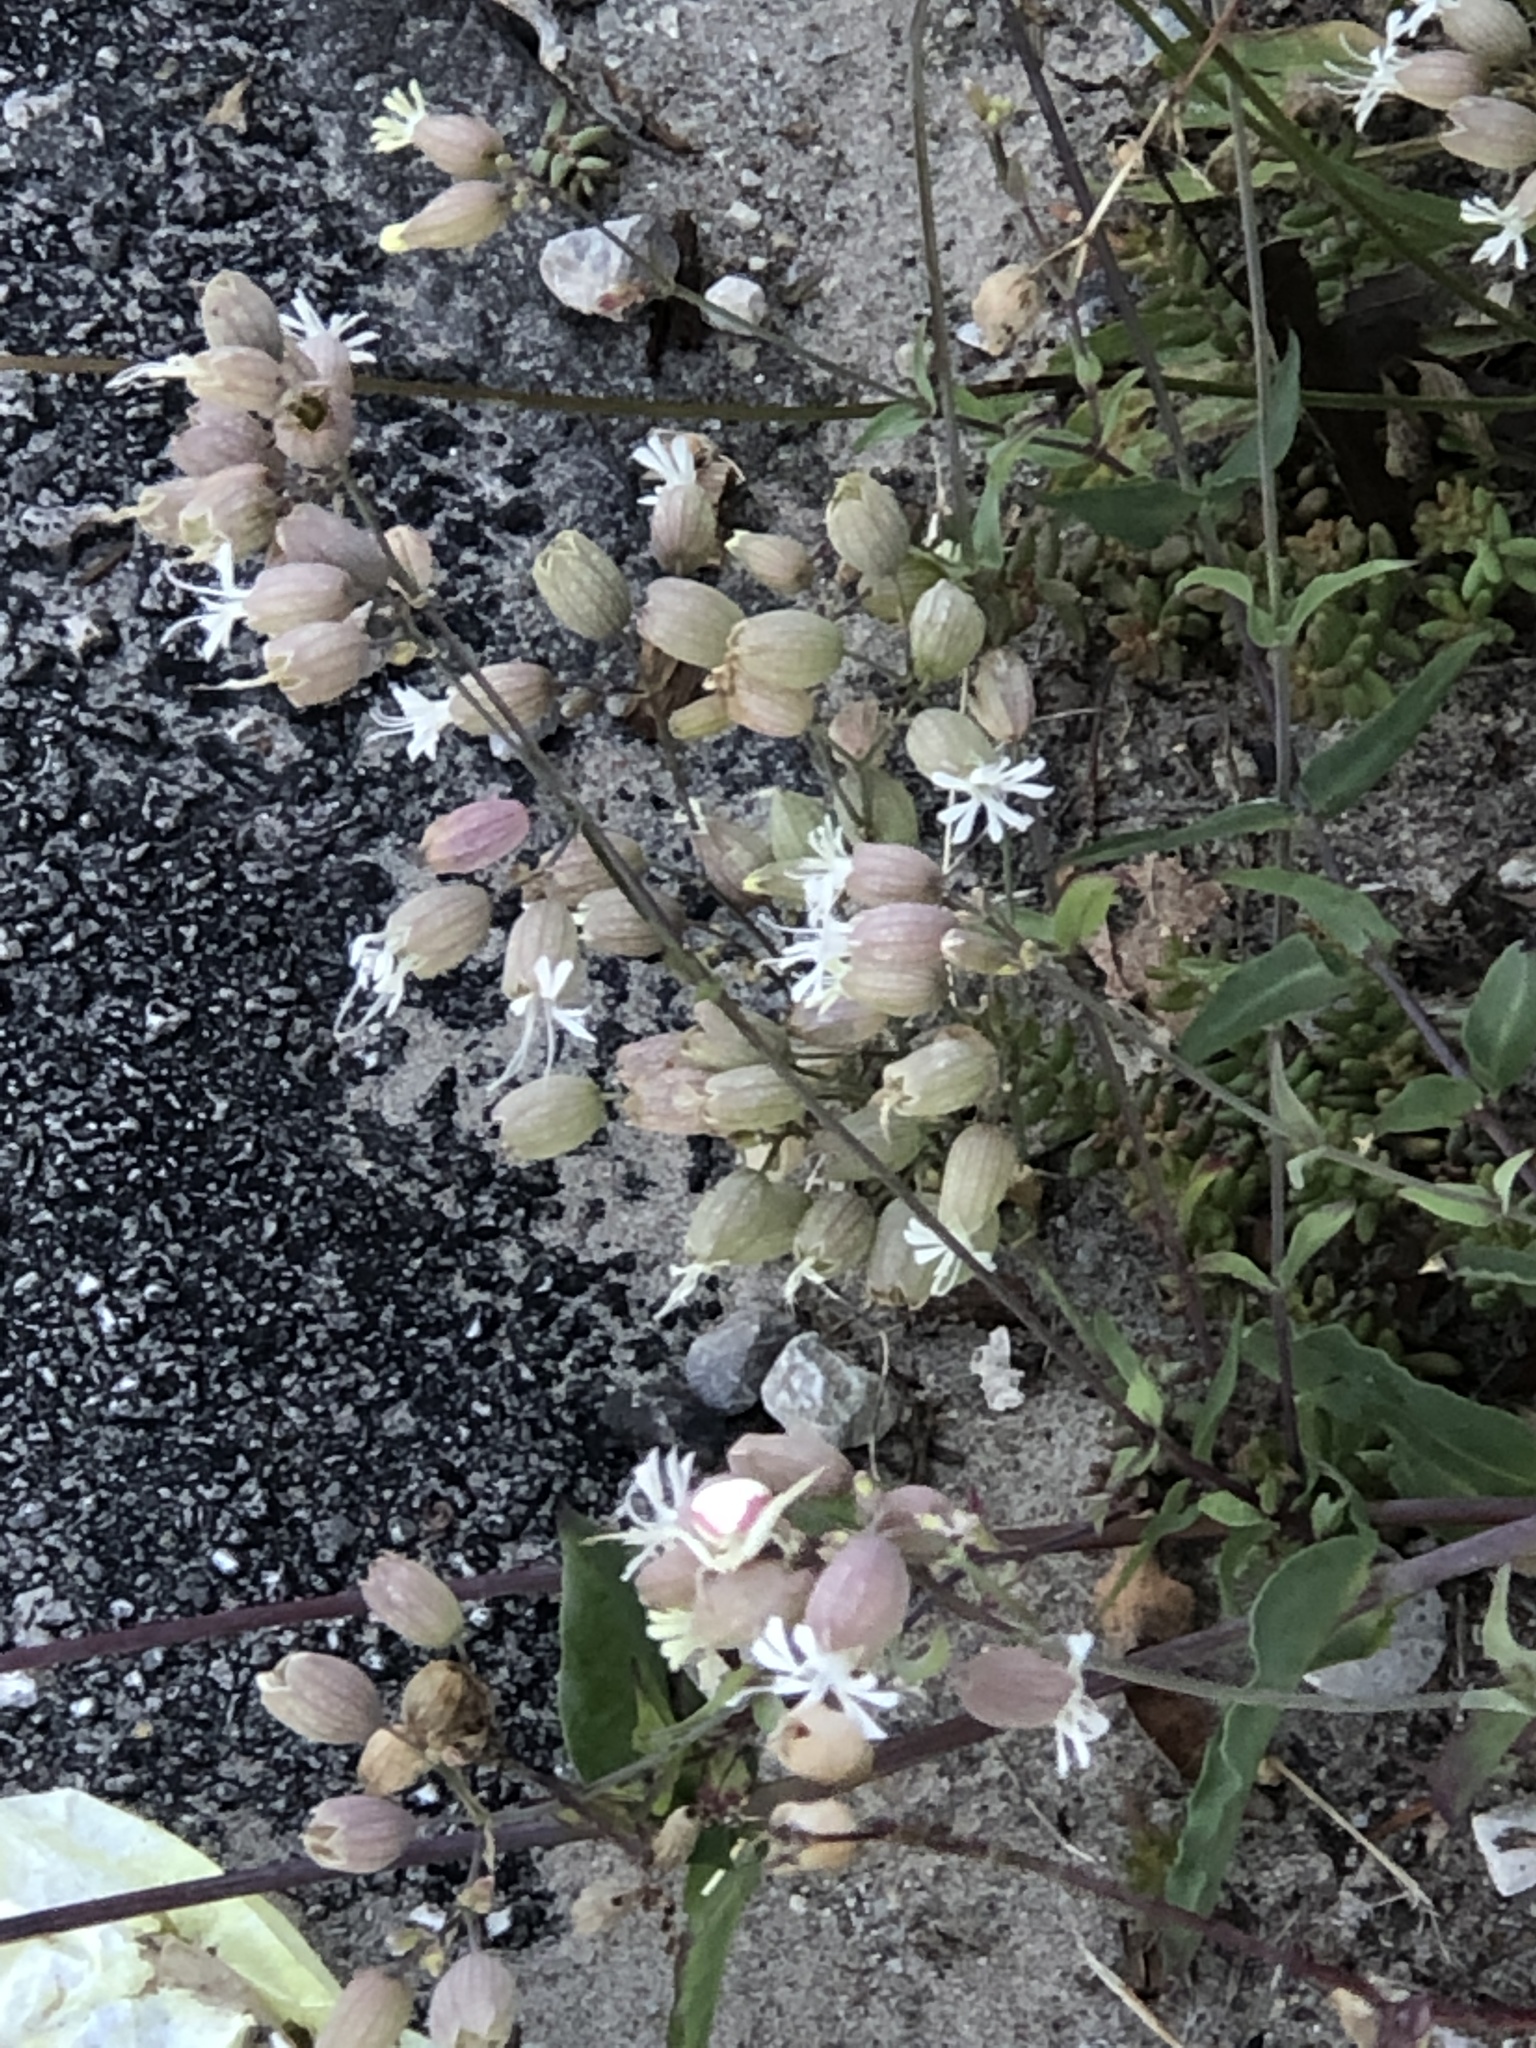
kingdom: Plantae
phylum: Tracheophyta
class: Magnoliopsida
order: Caryophyllales
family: Caryophyllaceae
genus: Silene
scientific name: Silene vulgaris
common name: Bladder campion
